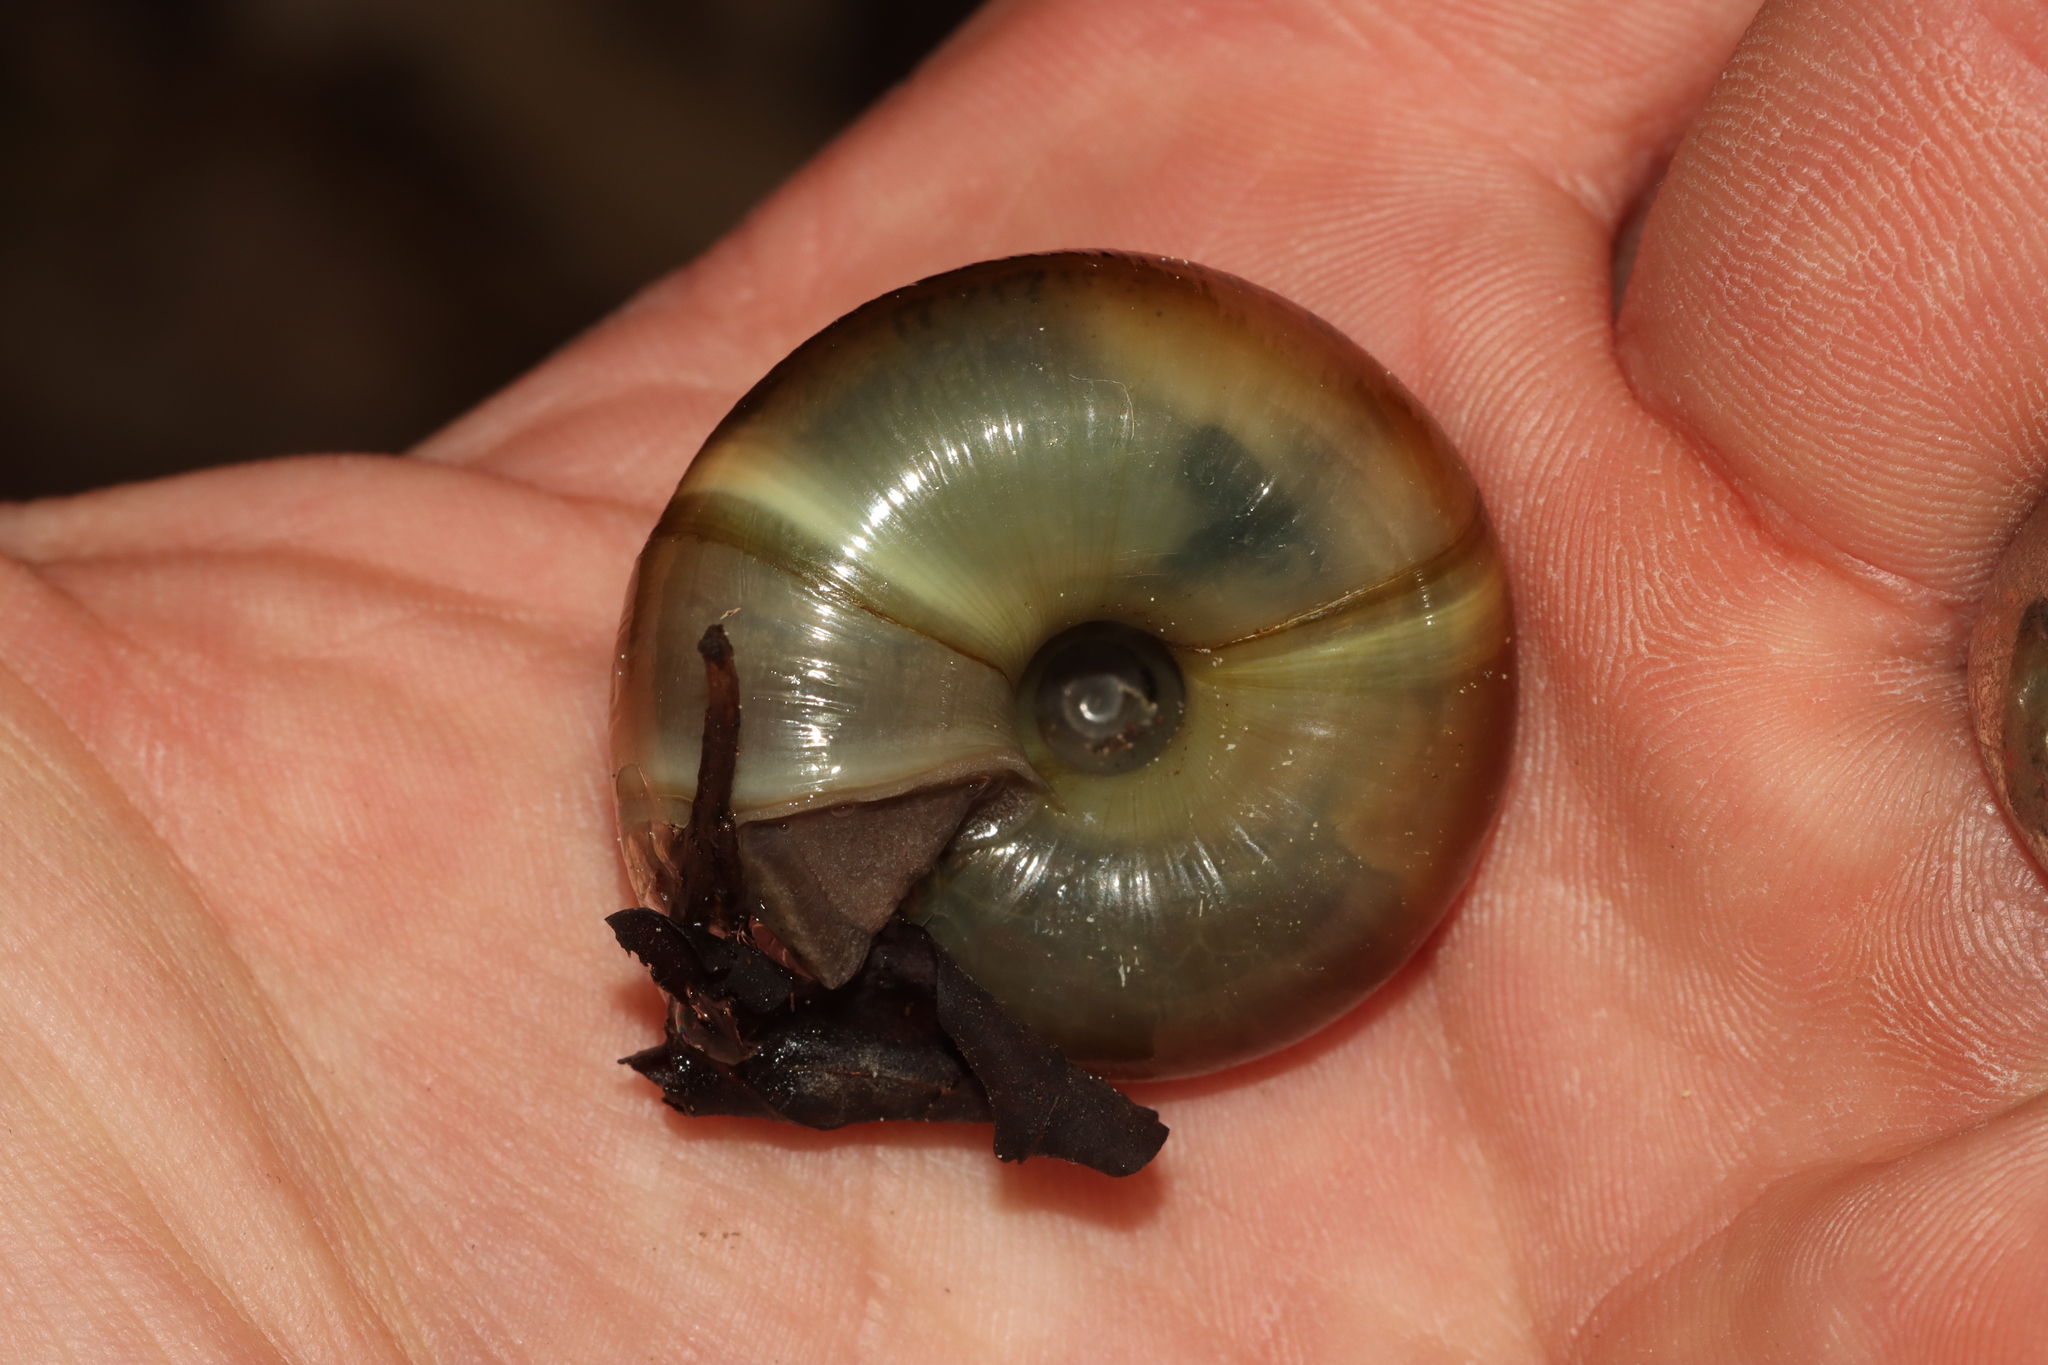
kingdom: Animalia
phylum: Mollusca
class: Gastropoda
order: Stylommatophora
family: Zonitidae
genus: Aegopis
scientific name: Aegopis verticillus
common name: Giant glass snail
